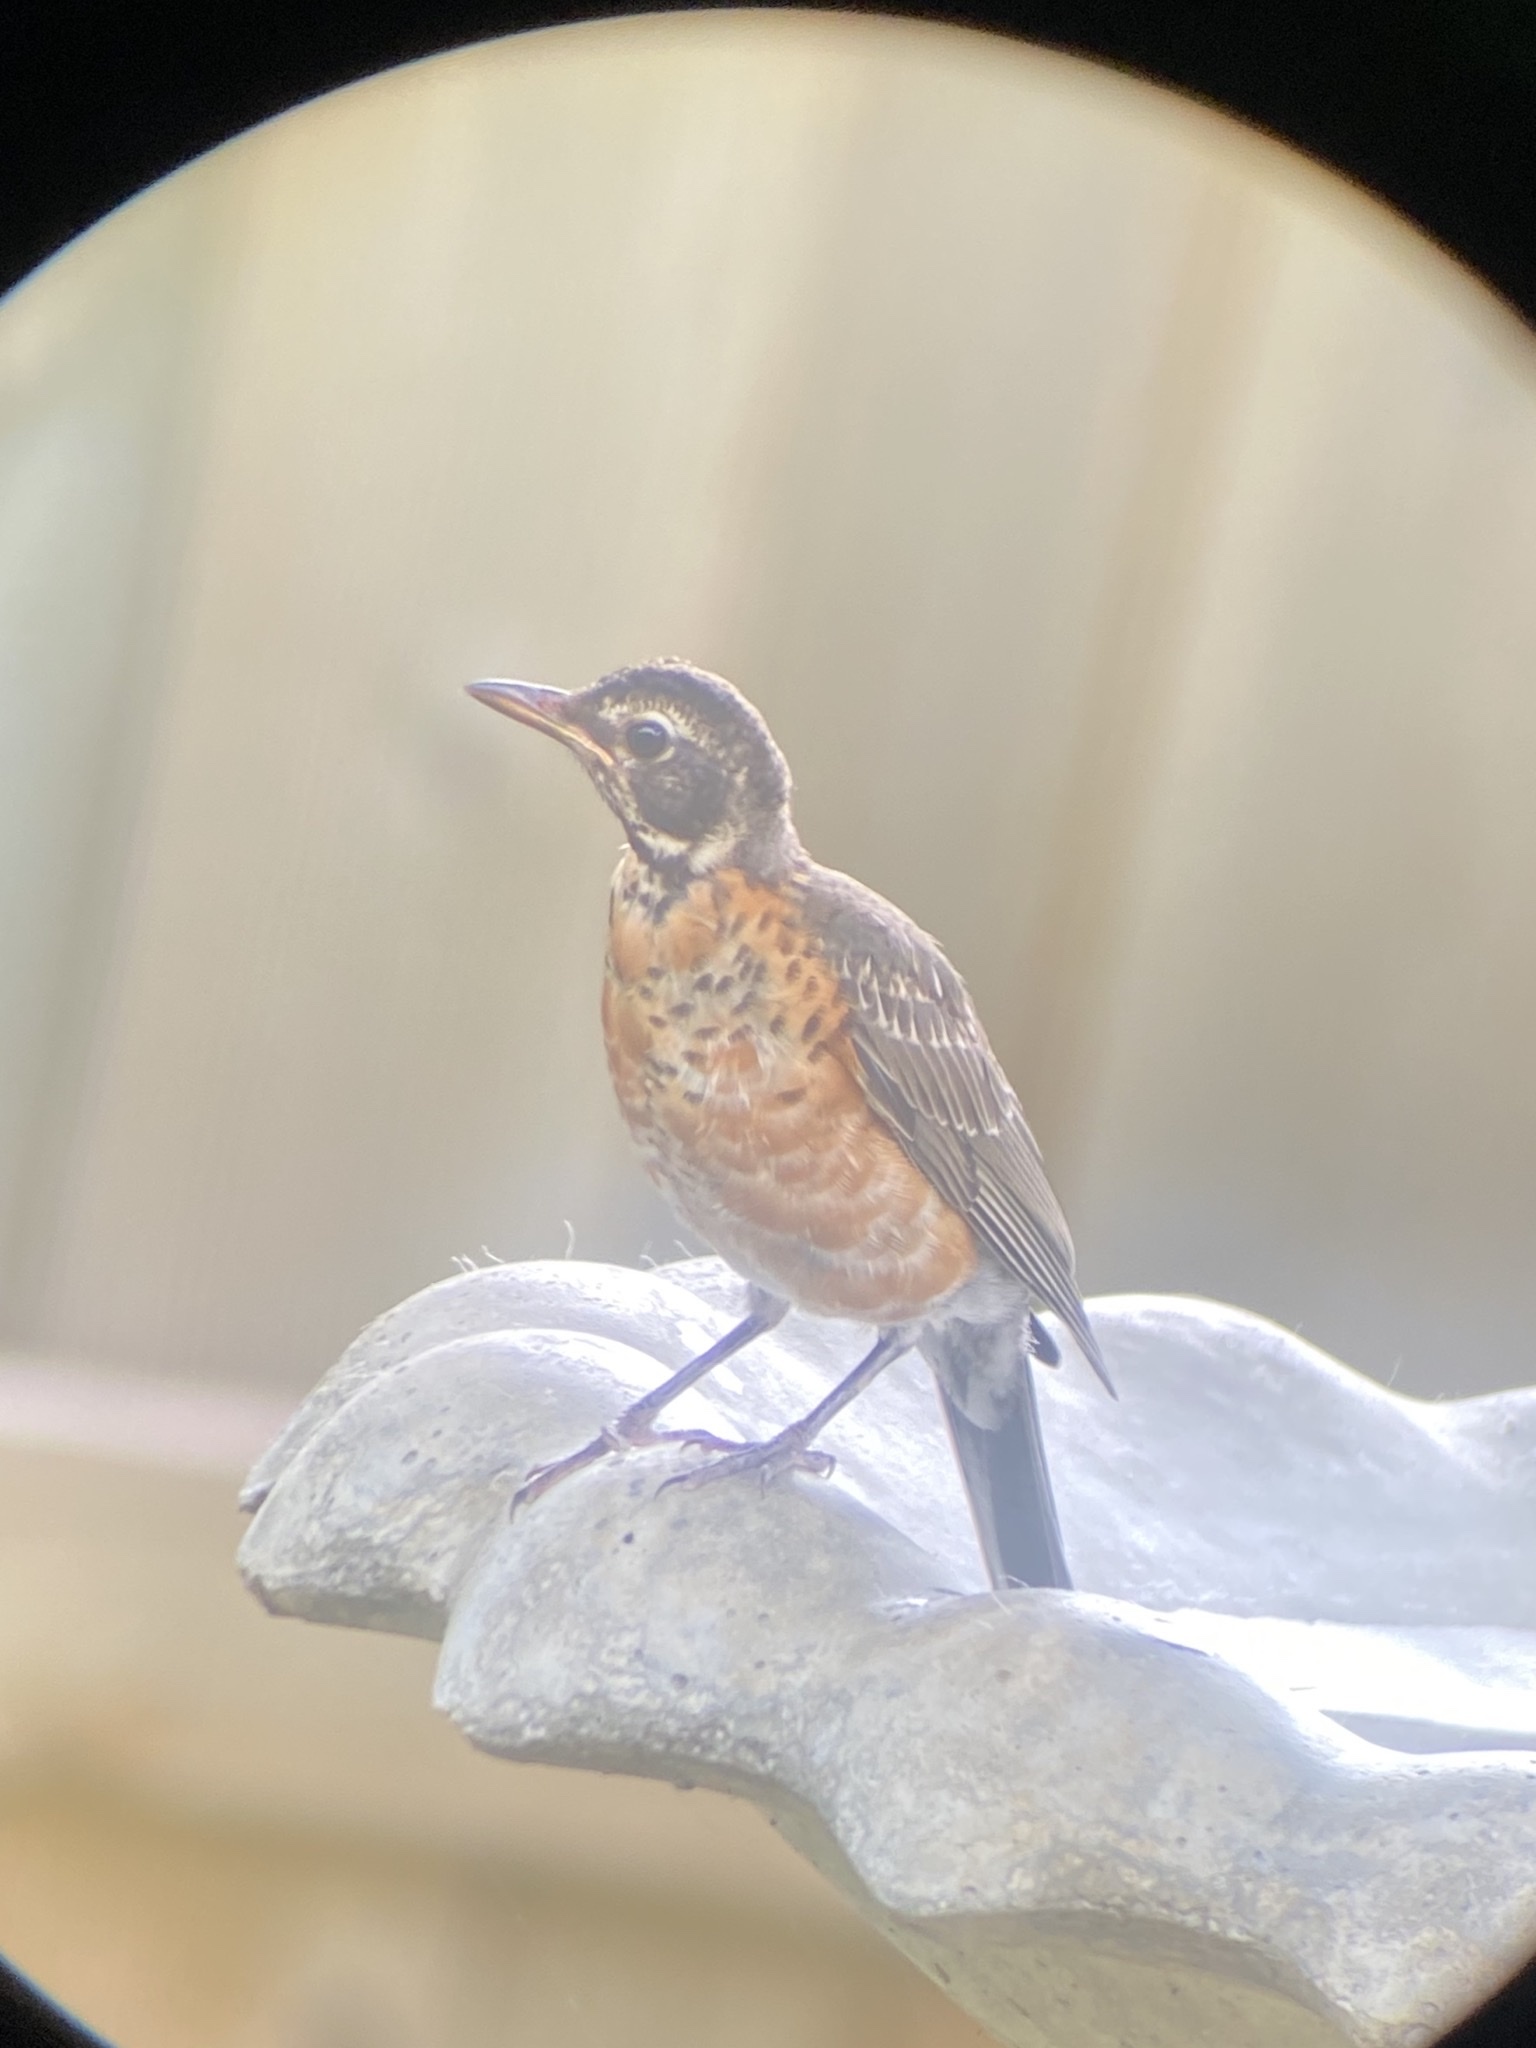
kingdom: Animalia
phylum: Chordata
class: Aves
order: Passeriformes
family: Turdidae
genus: Turdus
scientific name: Turdus migratorius
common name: American robin
